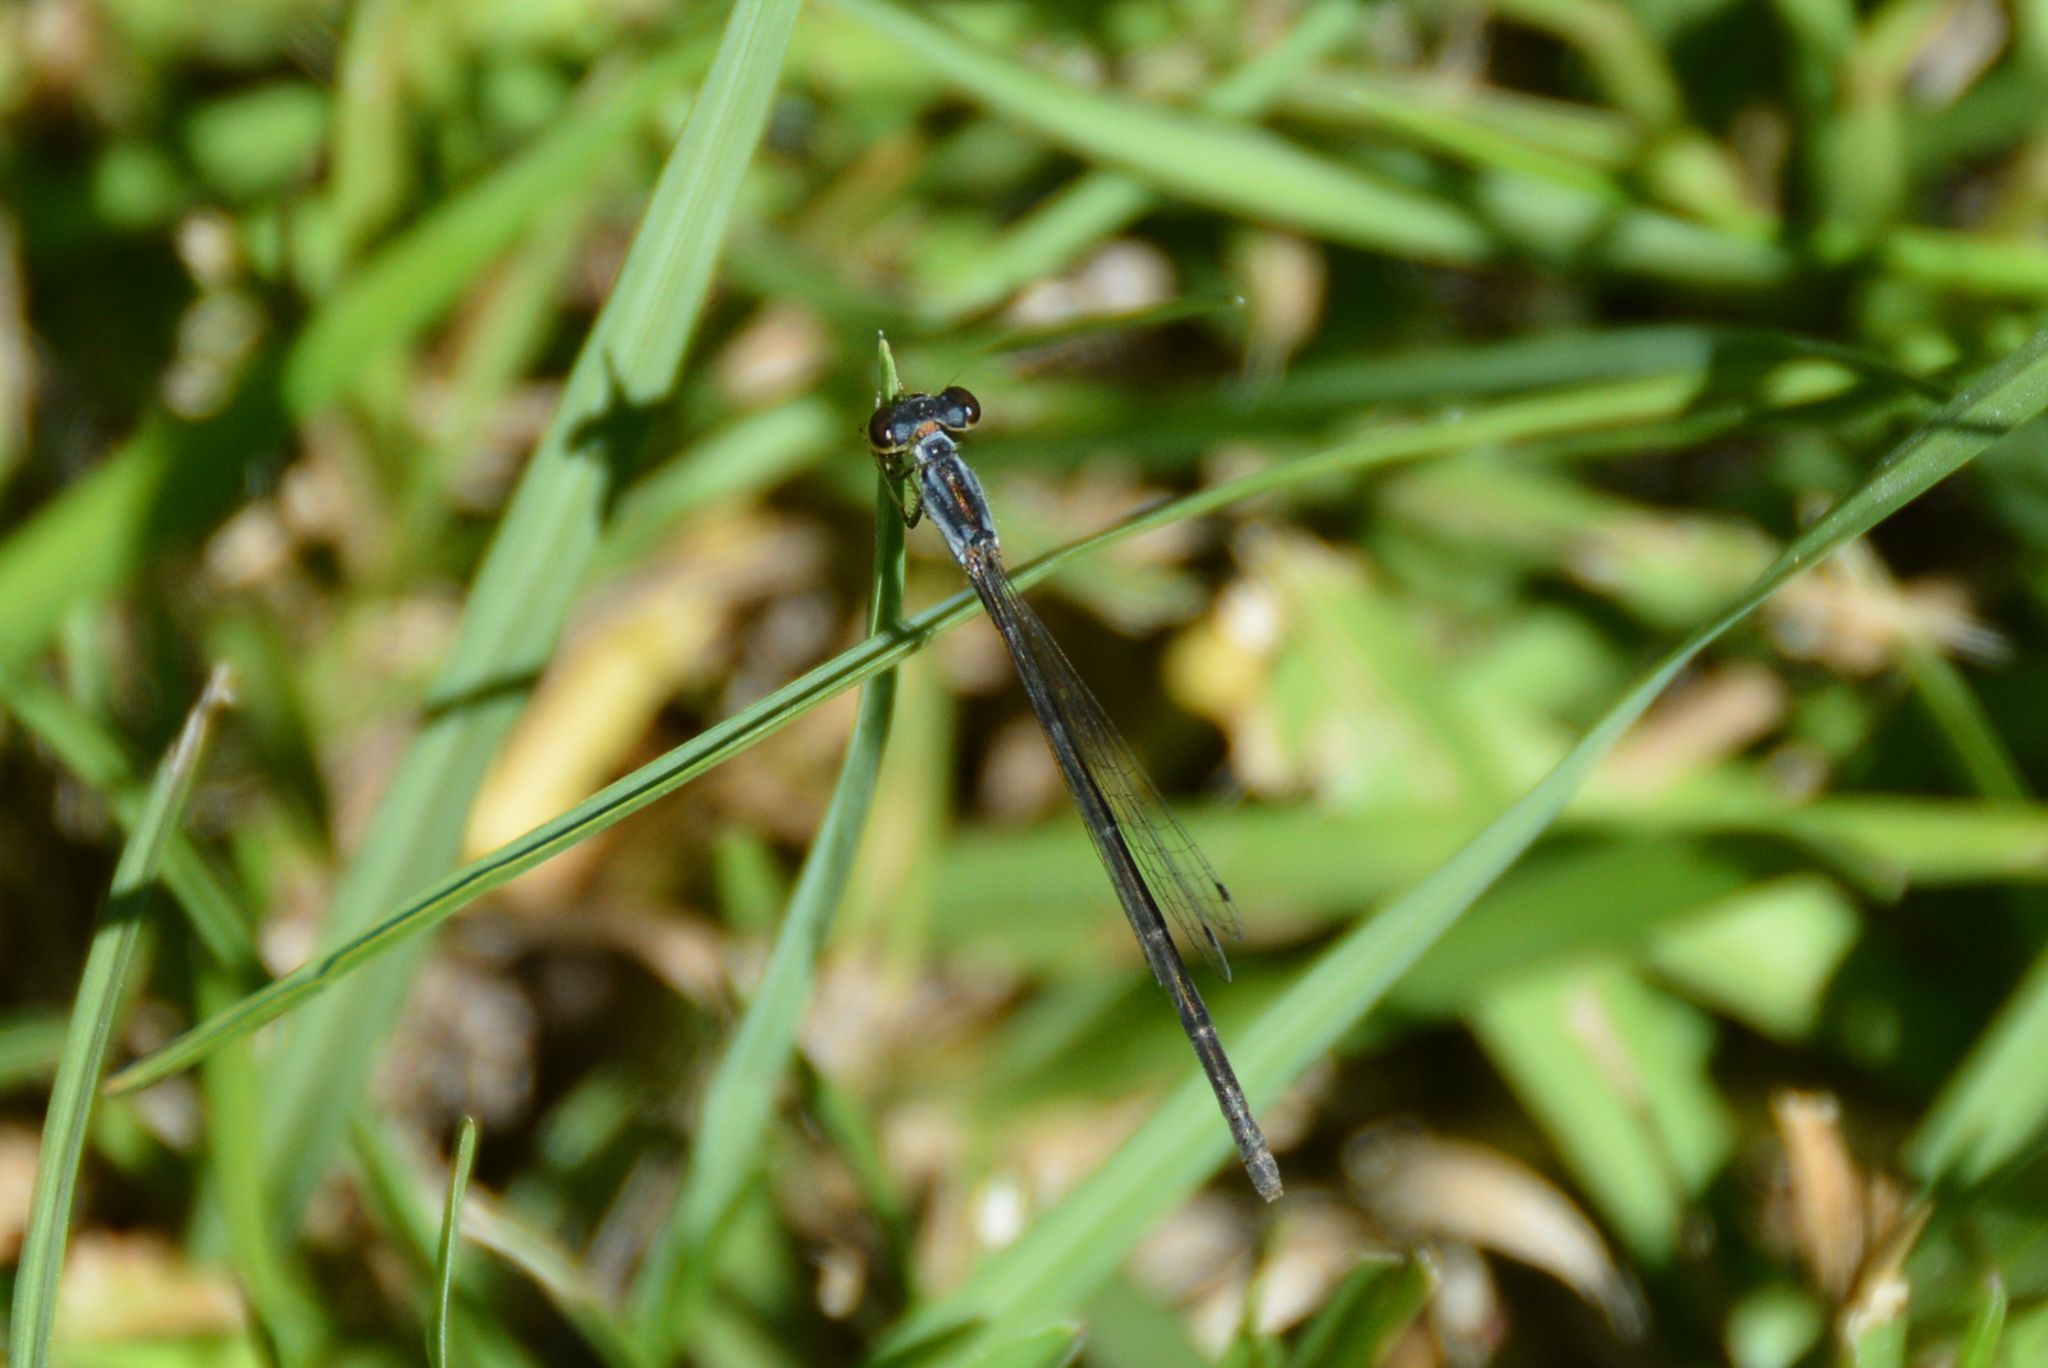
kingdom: Animalia
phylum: Arthropoda
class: Insecta
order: Odonata
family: Coenagrionidae
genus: Ischnura
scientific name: Ischnura posita
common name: Fragile forktail
